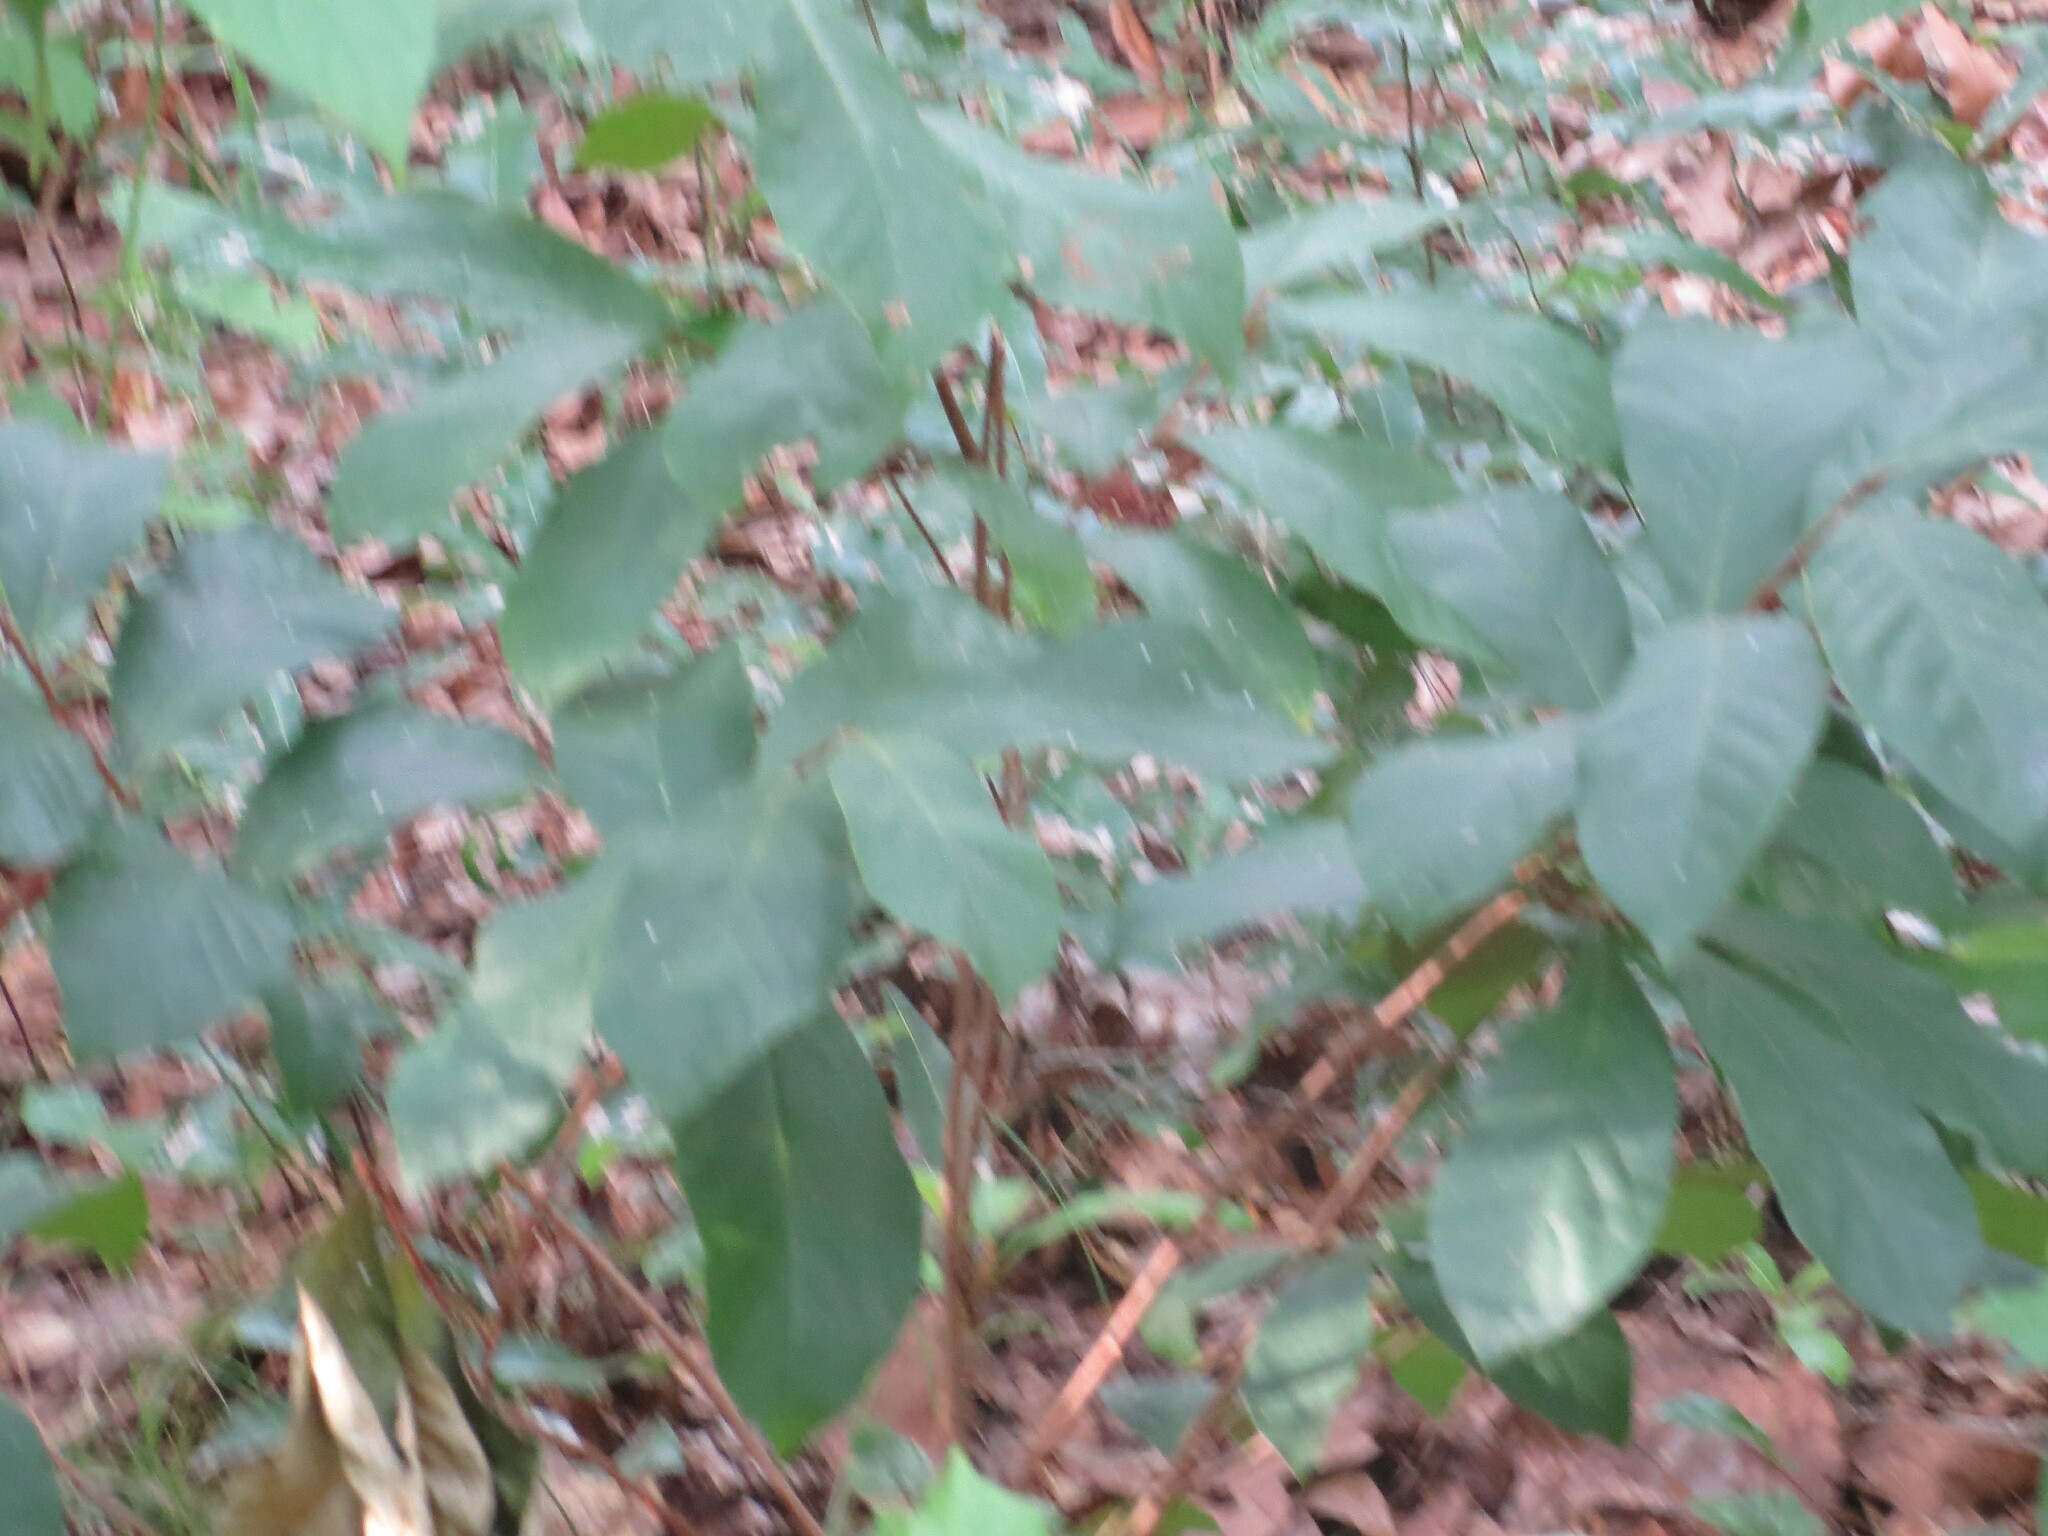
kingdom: Plantae
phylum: Tracheophyta
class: Magnoliopsida
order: Magnoliales
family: Annonaceae
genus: Asimina
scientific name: Asimina parviflora
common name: Dwarf pawpaw
